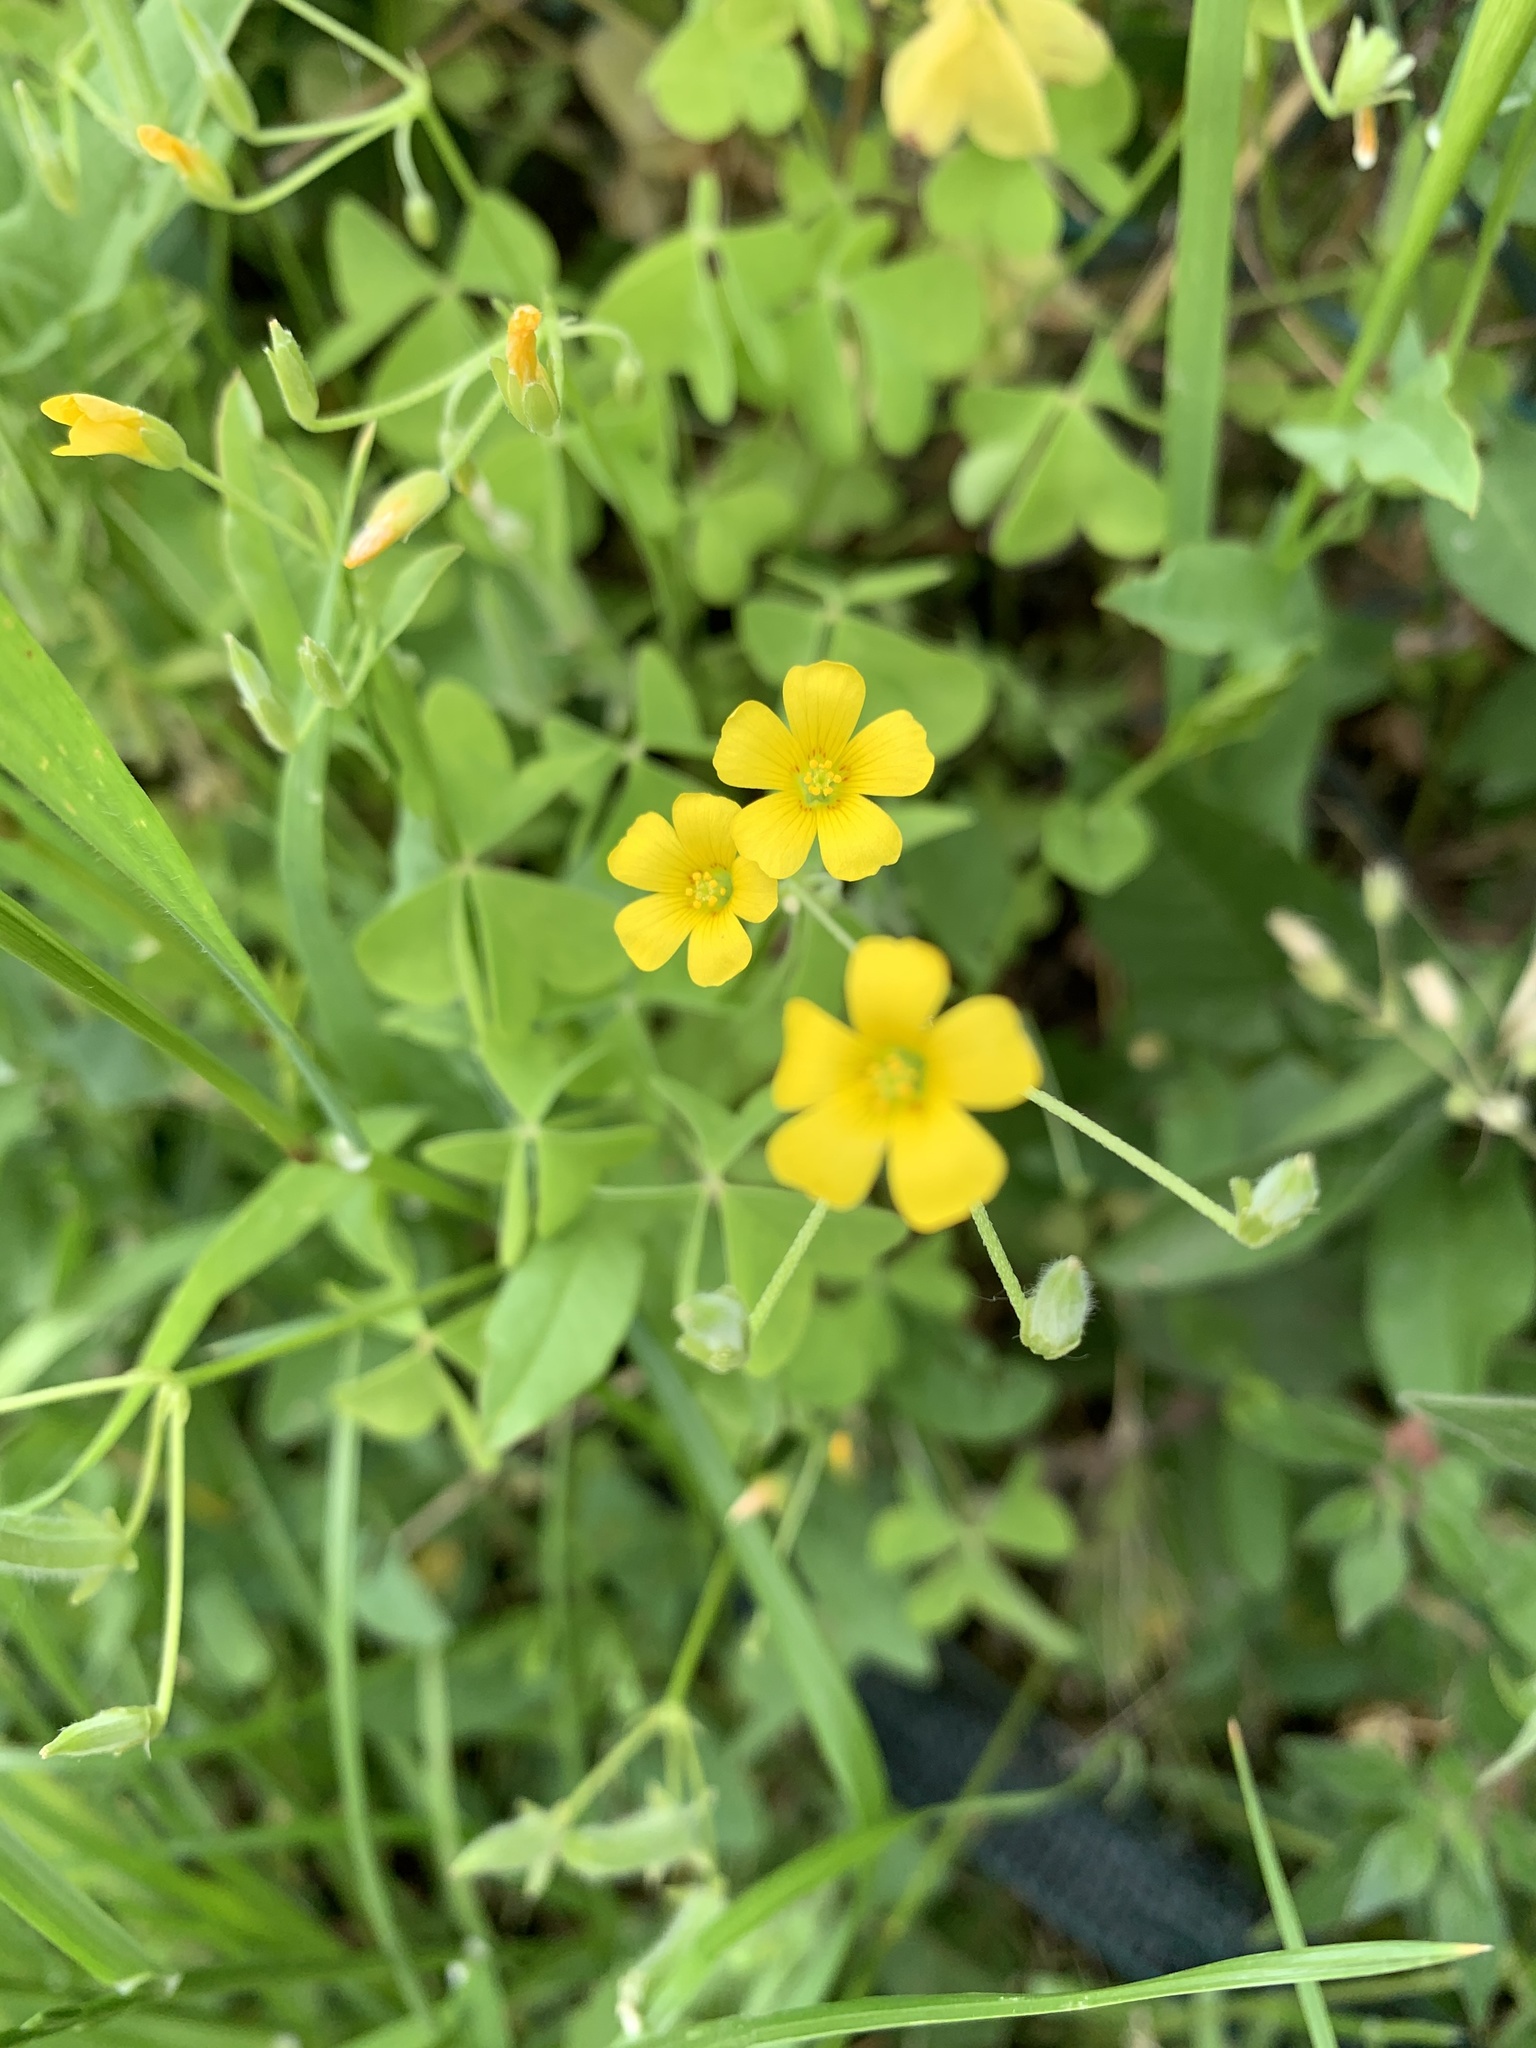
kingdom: Plantae
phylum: Tracheophyta
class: Magnoliopsida
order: Oxalidales
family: Oxalidaceae
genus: Oxalis
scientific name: Oxalis dillenii
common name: Sussex yellow-sorrel
